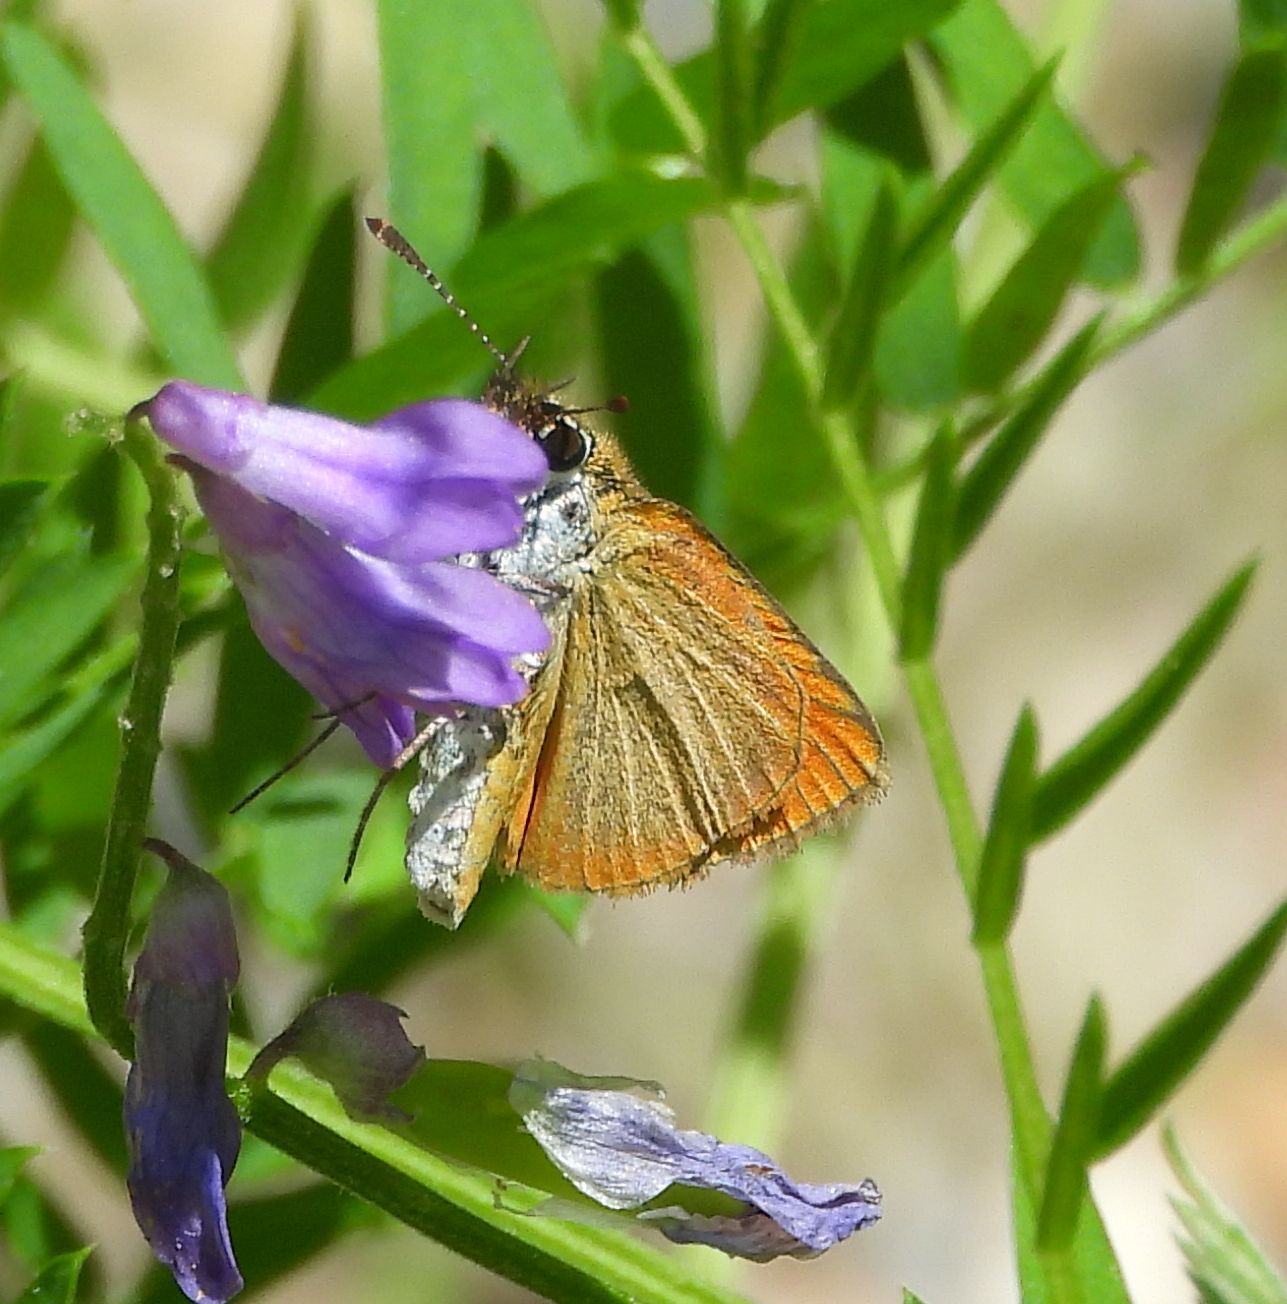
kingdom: Animalia
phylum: Arthropoda
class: Insecta
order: Lepidoptera
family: Hesperiidae
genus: Ancyloxypha
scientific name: Ancyloxypha numitor
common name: Least skipper
